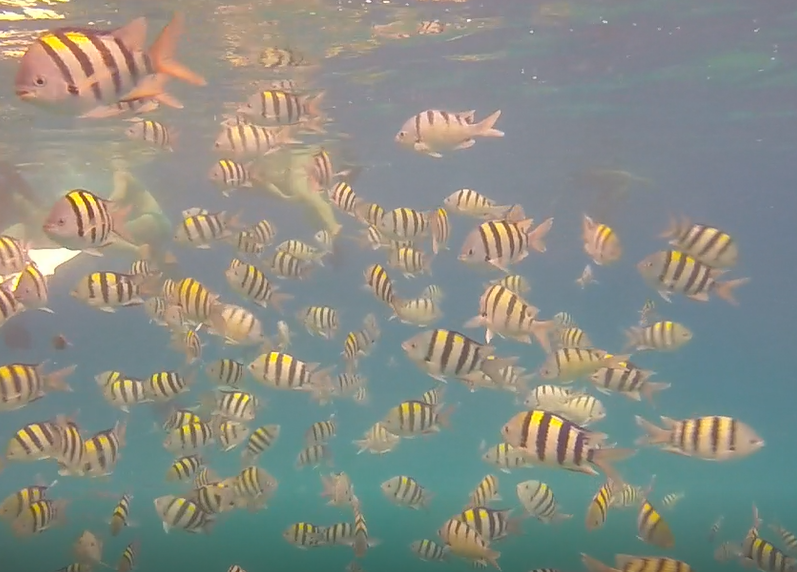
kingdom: Animalia
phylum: Chordata
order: Perciformes
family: Pomacentridae
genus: Abudefduf
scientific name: Abudefduf vaigiensis
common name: Indo-pacific sergeant
